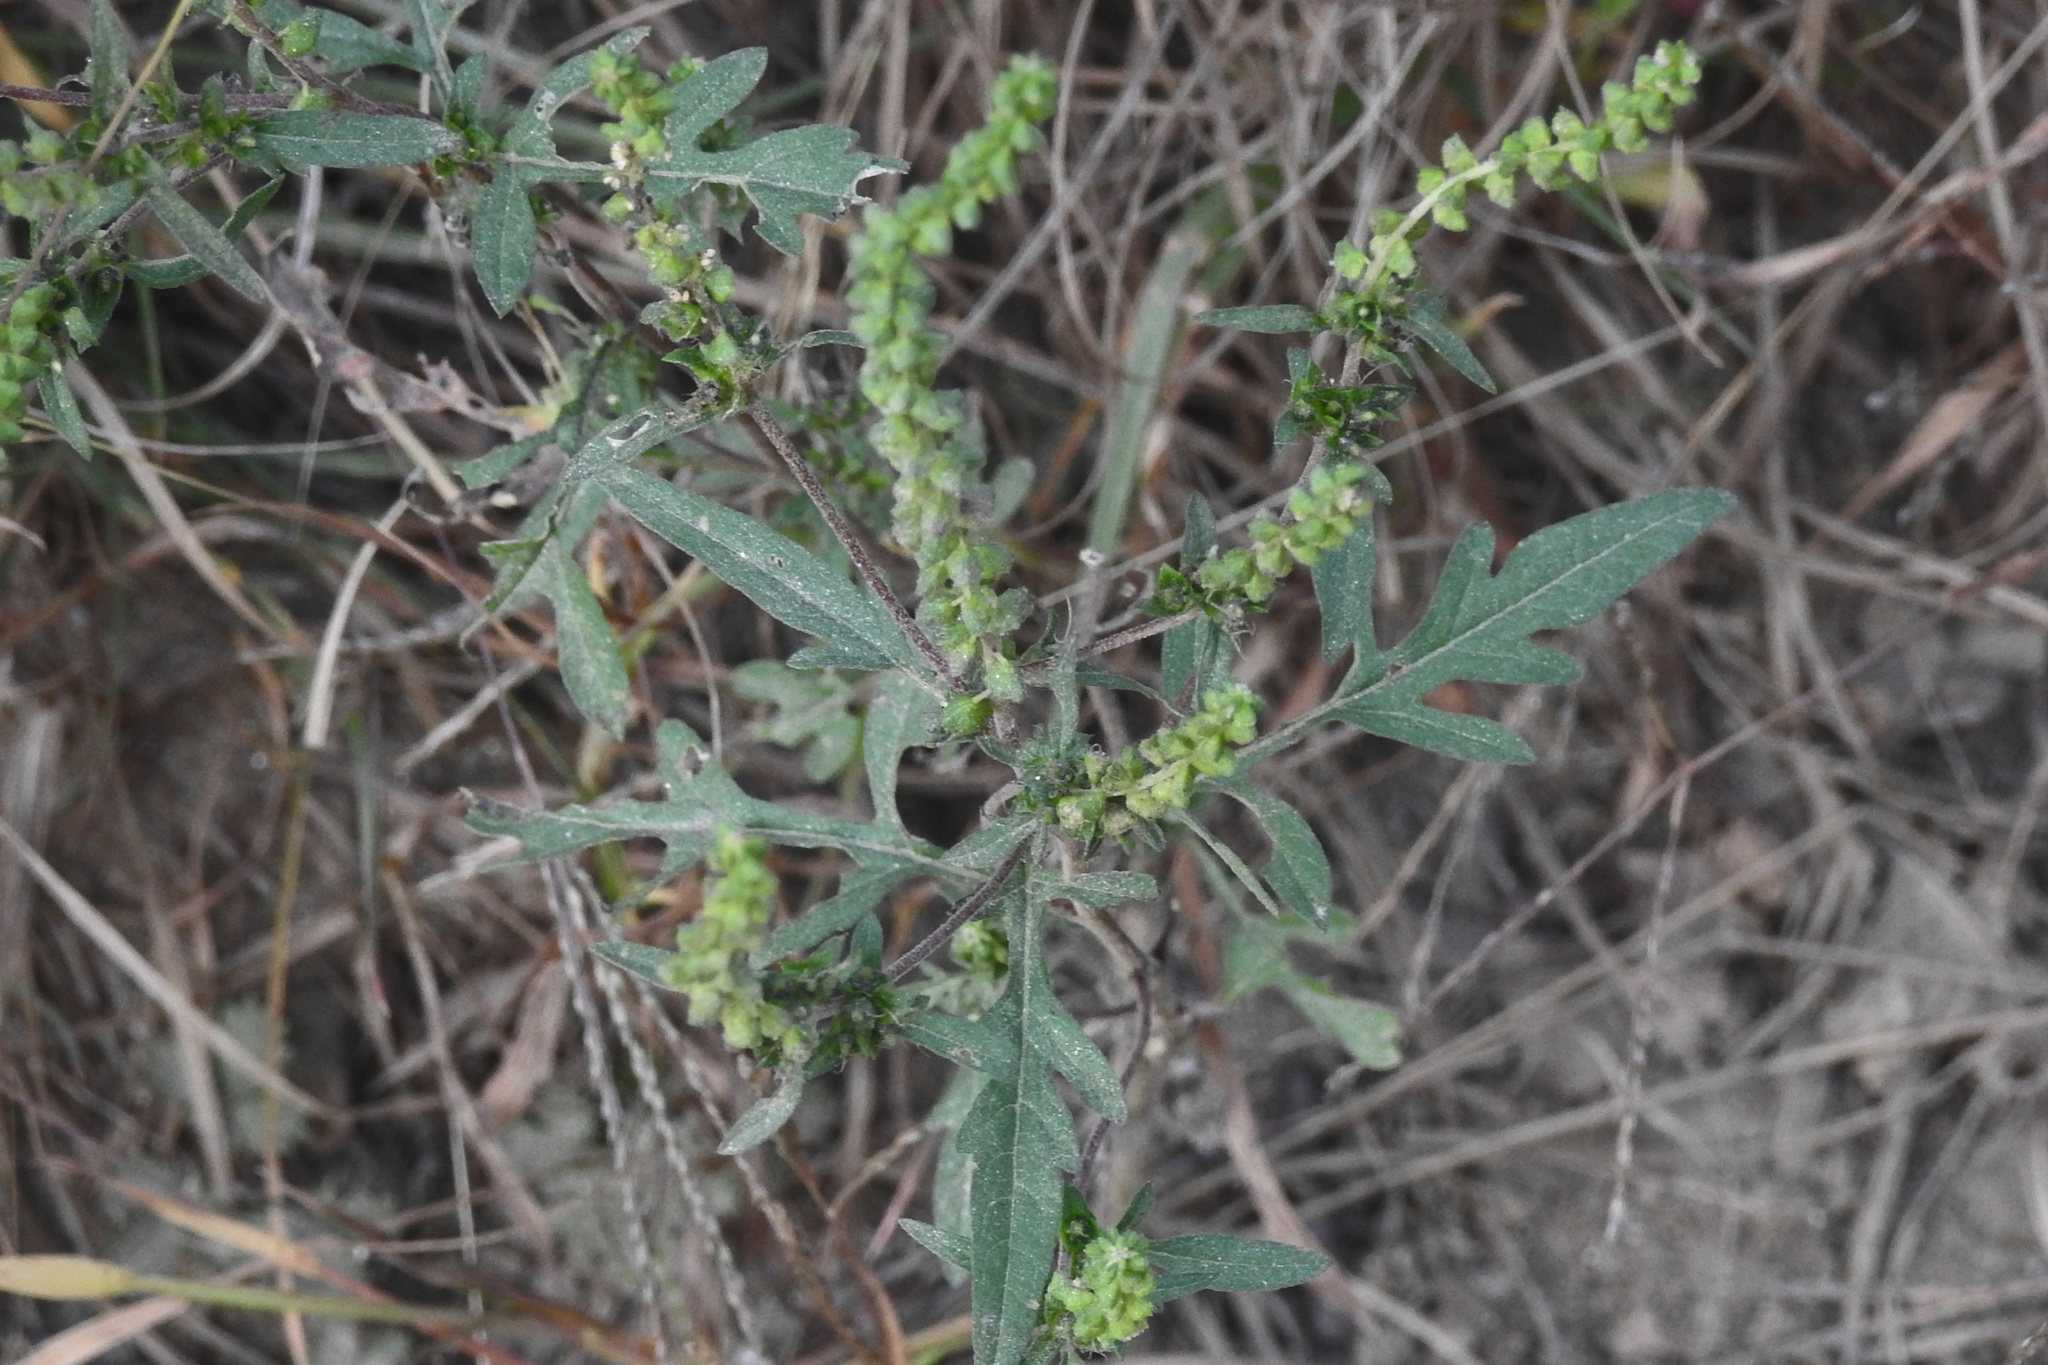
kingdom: Plantae
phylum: Tracheophyta
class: Magnoliopsida
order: Asterales
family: Asteraceae
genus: Ambrosia
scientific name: Ambrosia artemisiifolia
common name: Annual ragweed
